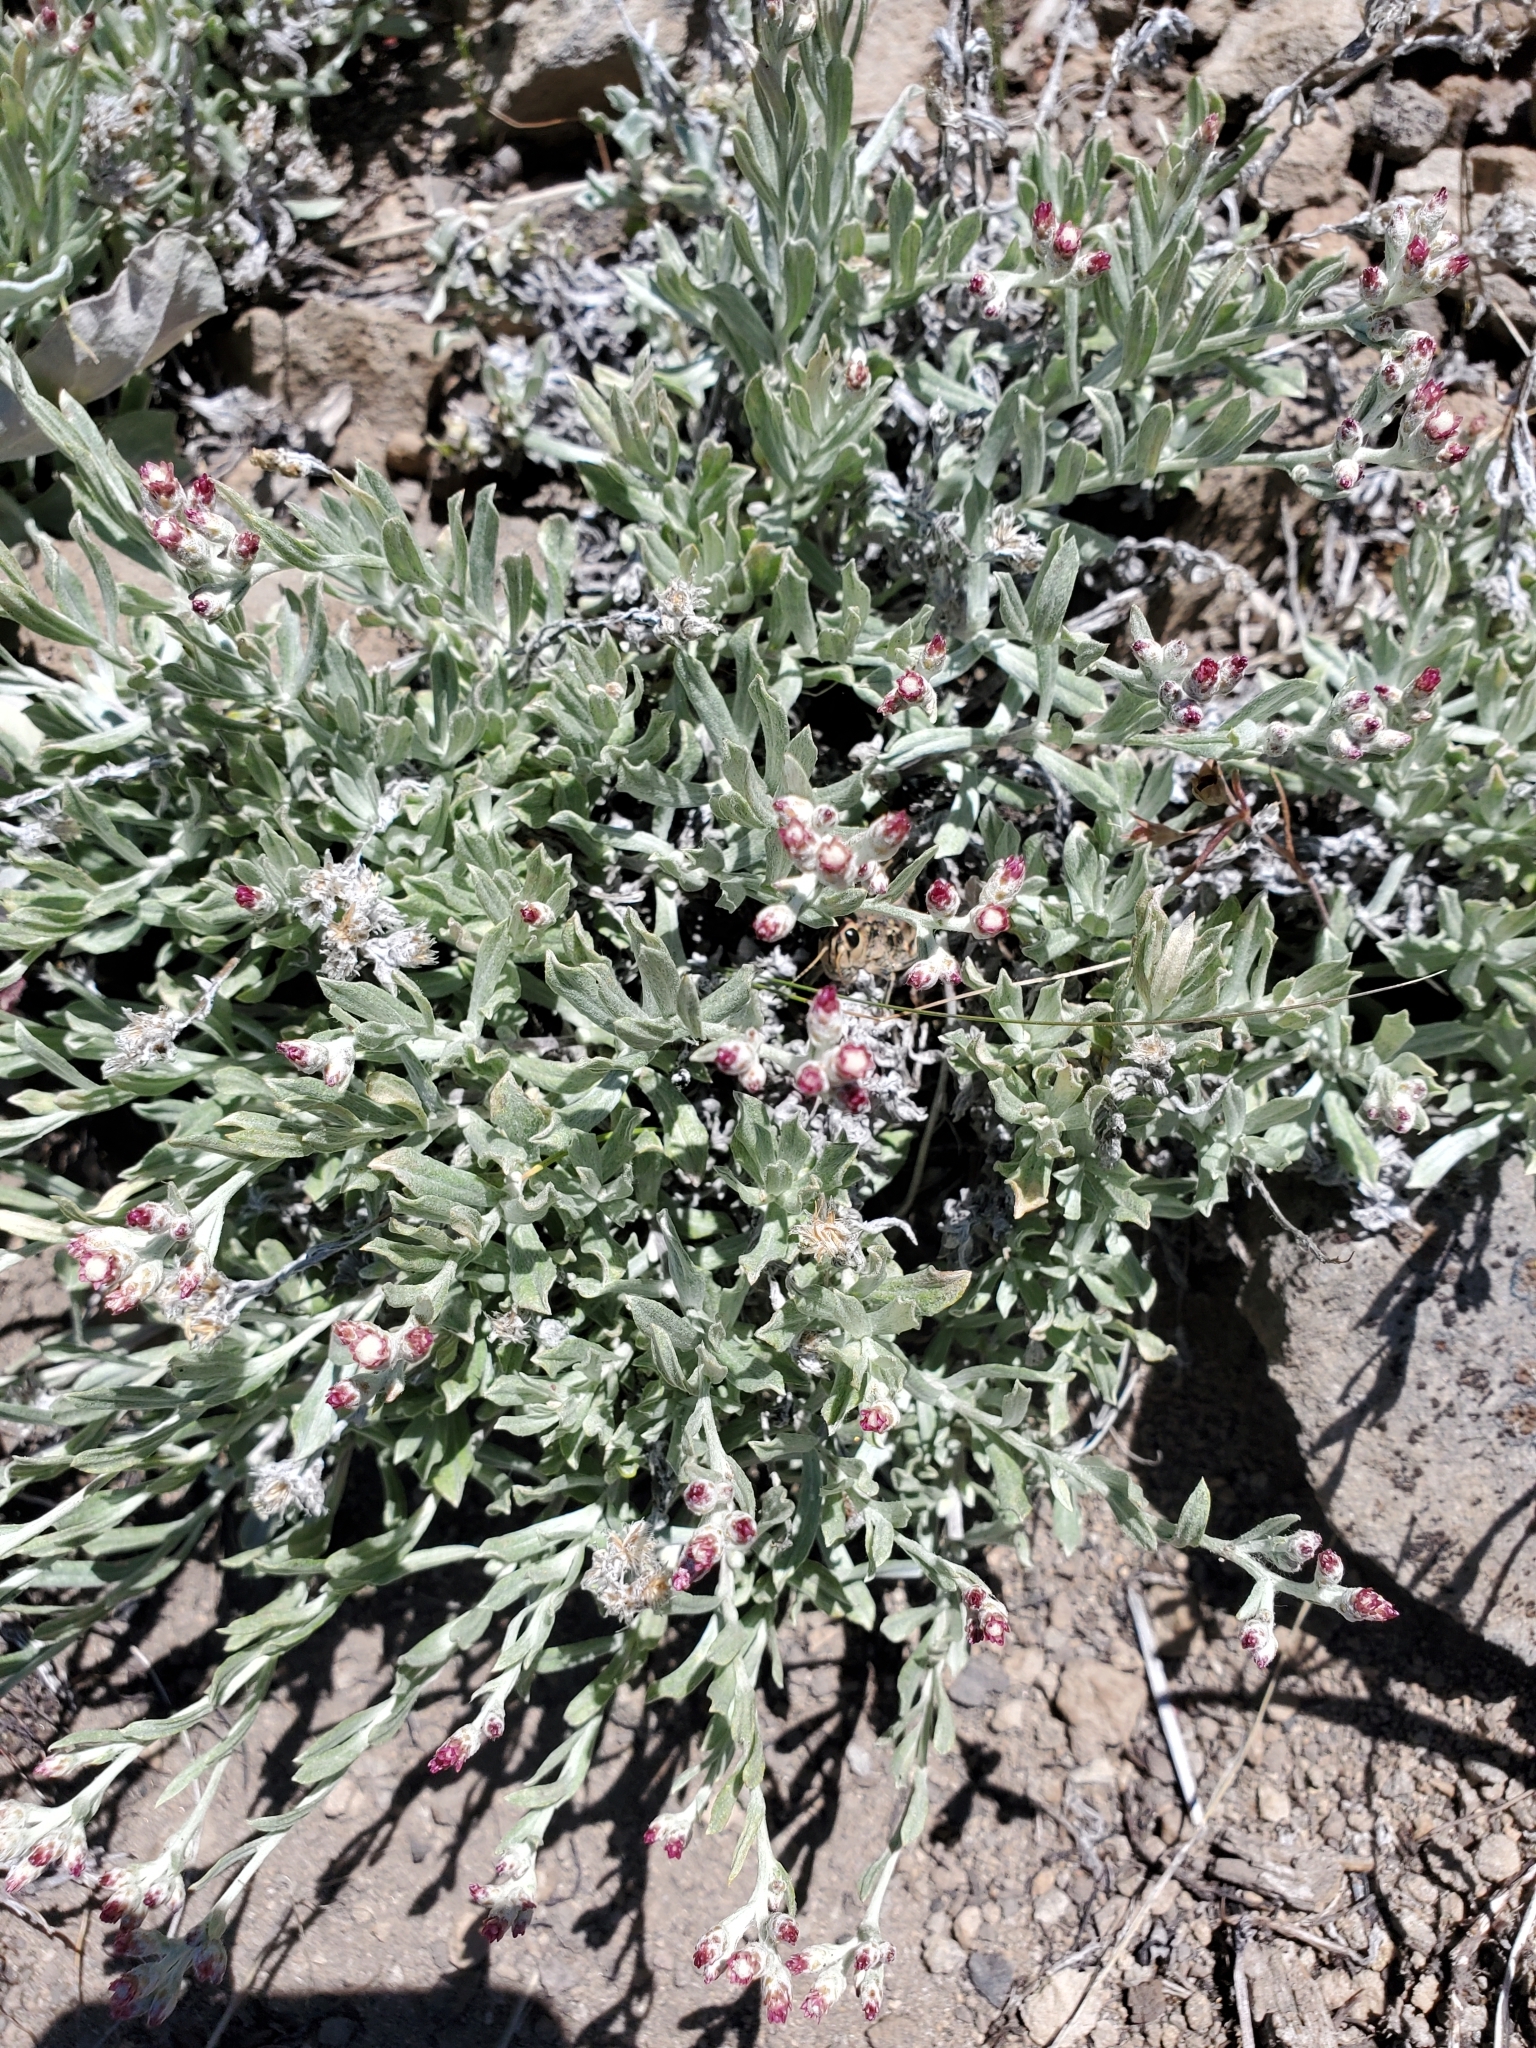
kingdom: Plantae
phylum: Tracheophyta
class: Magnoliopsida
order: Asterales
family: Asteraceae
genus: Antennaria
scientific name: Antennaria geyeri
